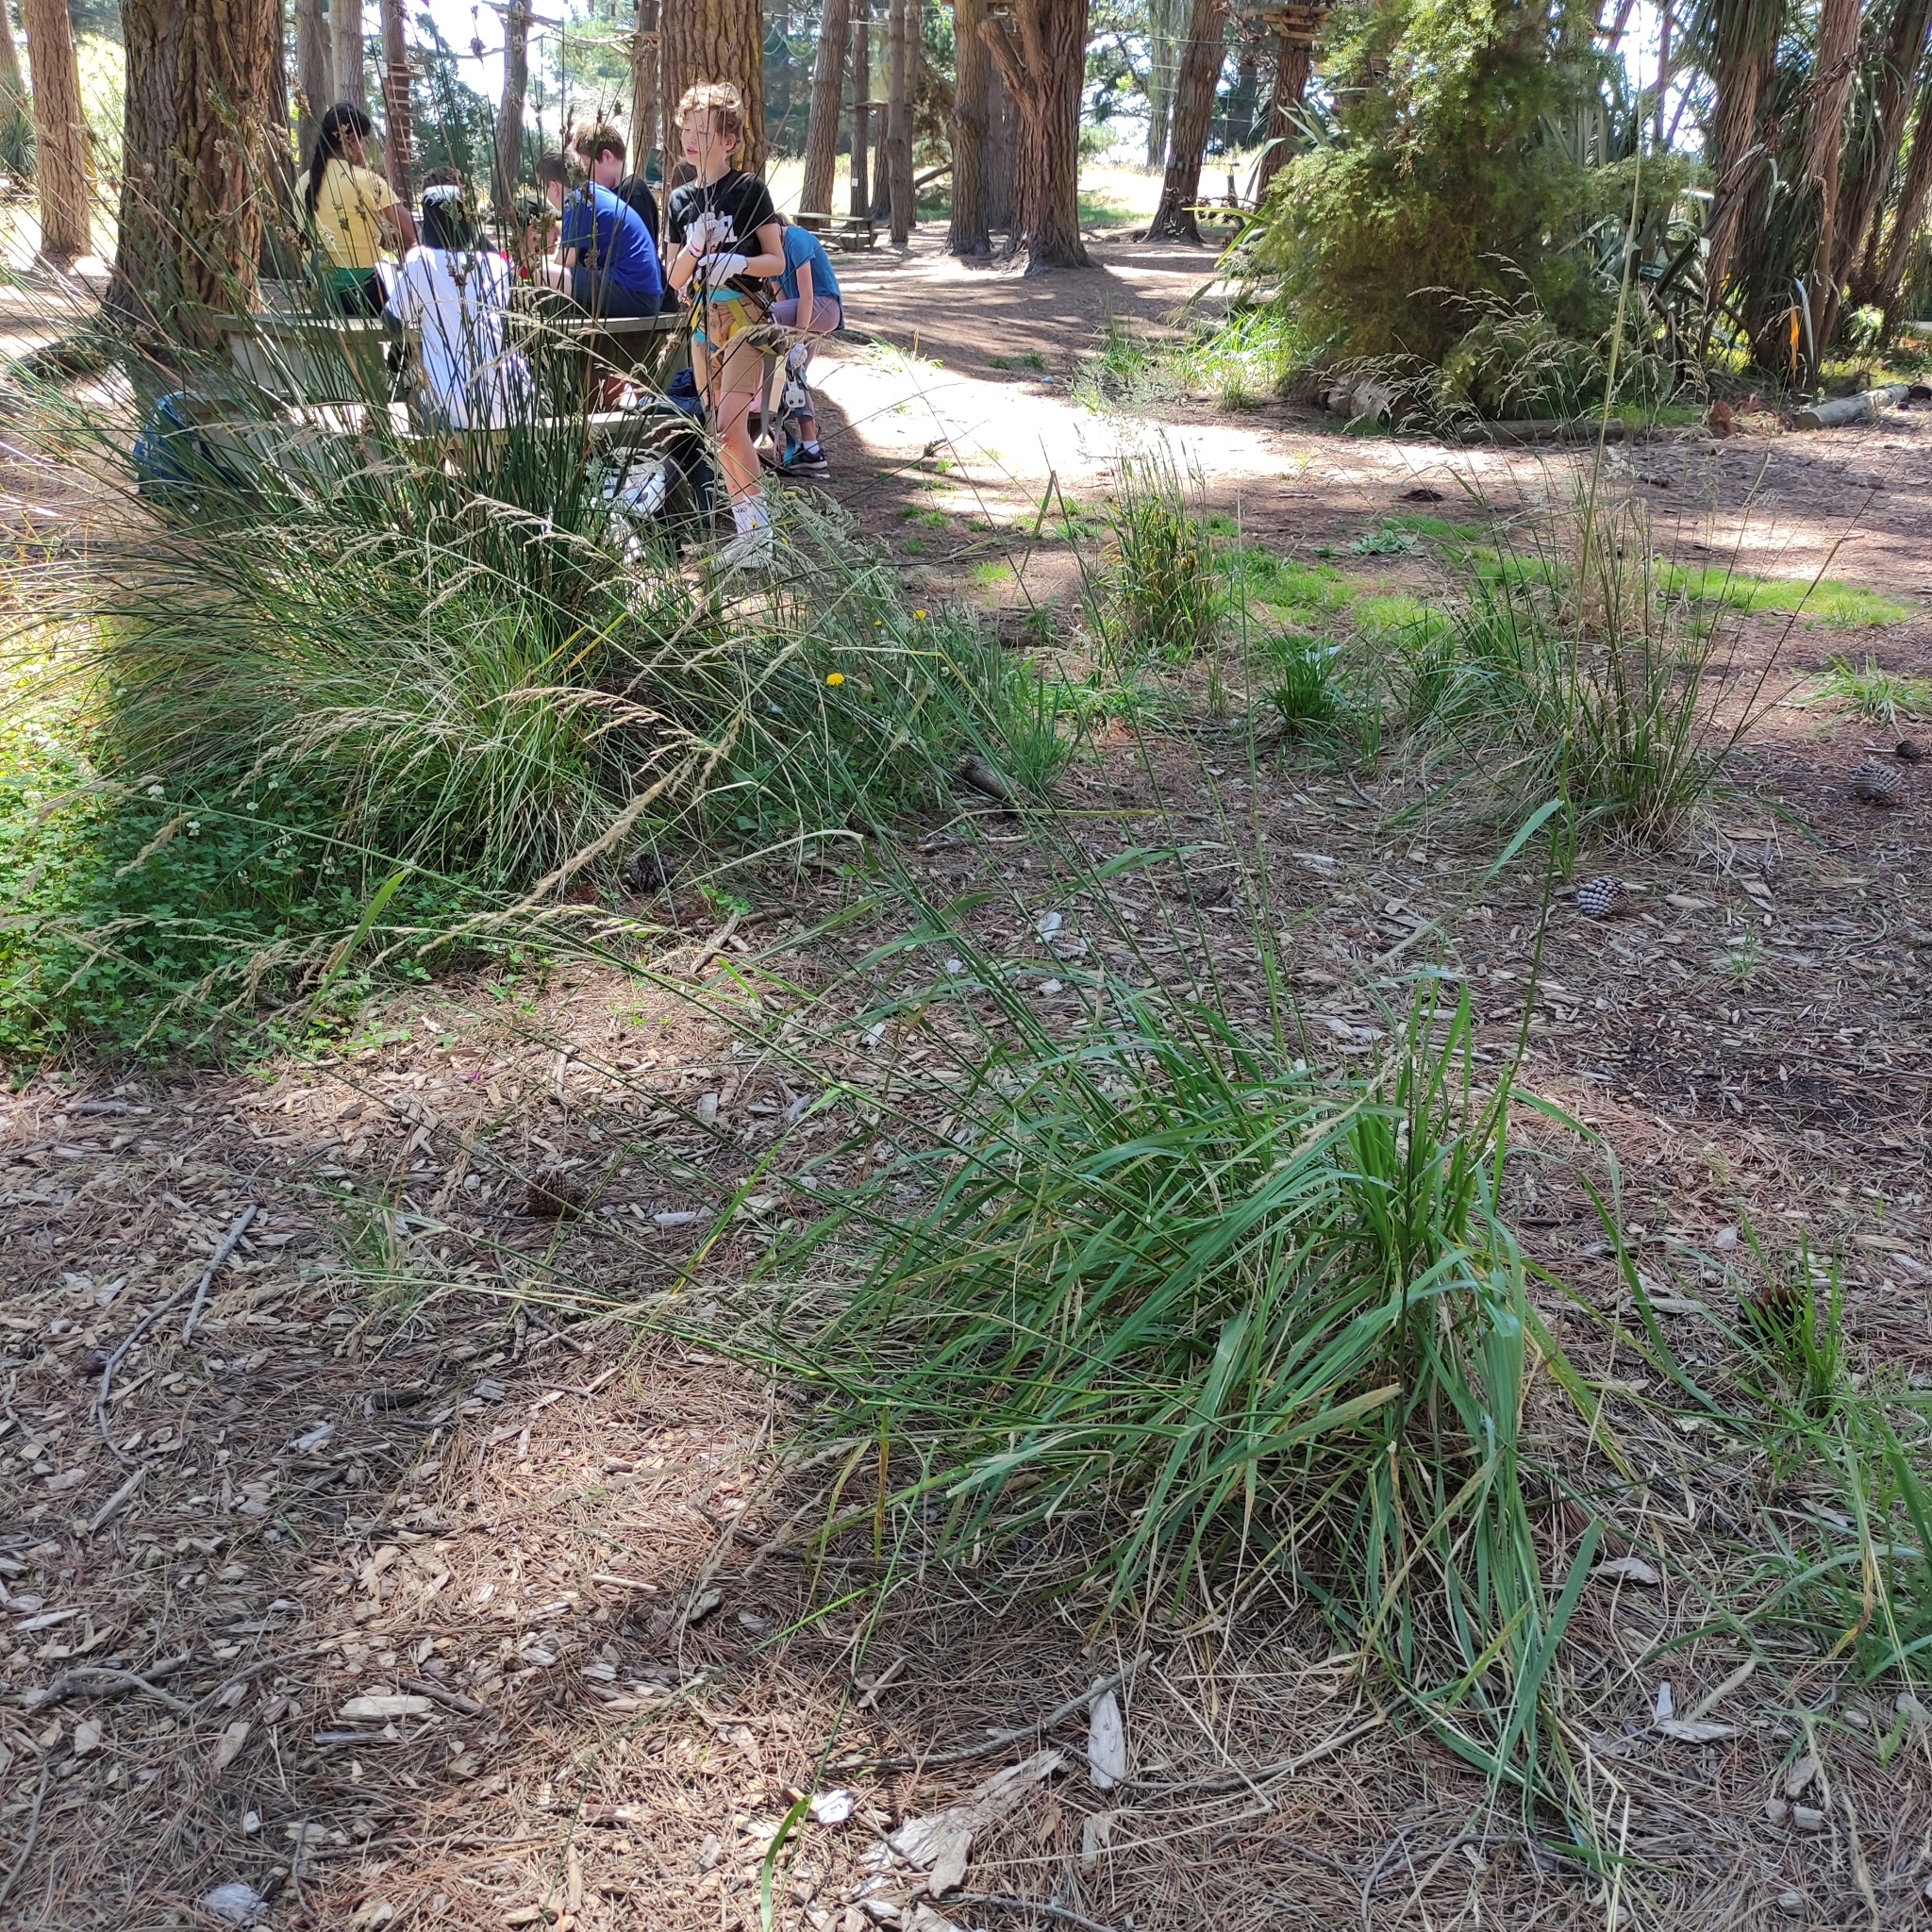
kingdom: Plantae
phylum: Tracheophyta
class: Liliopsida
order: Poales
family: Poaceae
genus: Lolium
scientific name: Lolium arundinaceum
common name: Reed fescue
